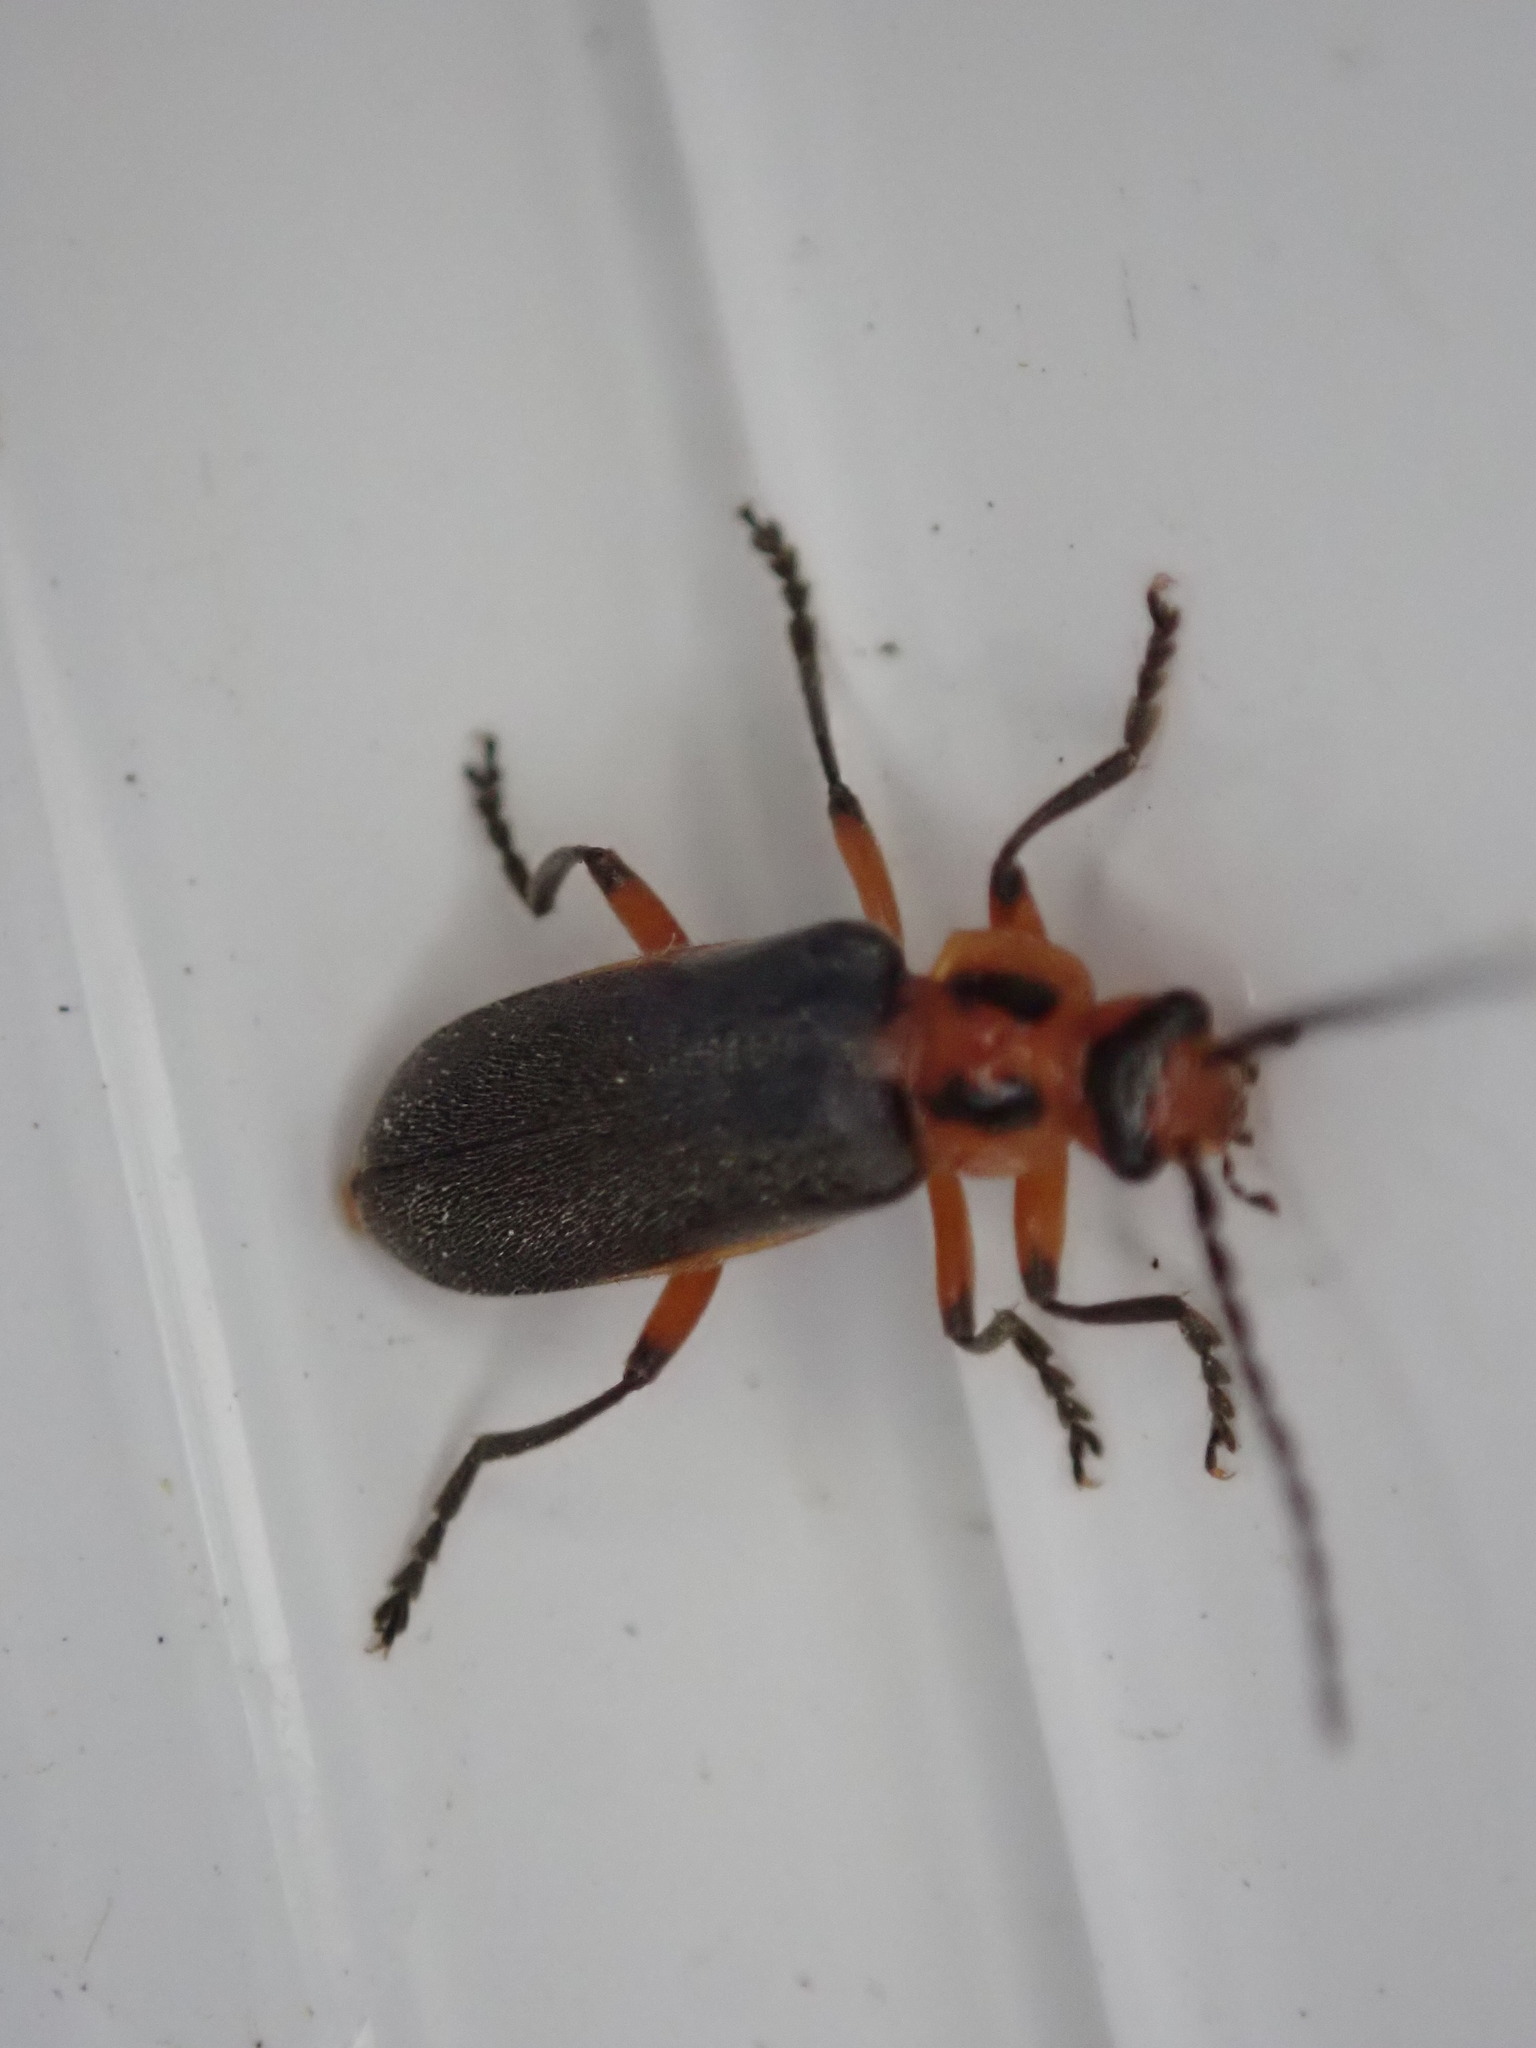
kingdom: Animalia
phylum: Arthropoda
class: Insecta
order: Coleoptera
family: Cantharidae
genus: Atalantycha
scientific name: Atalantycha bilineata
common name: Two-lined leatherwing
